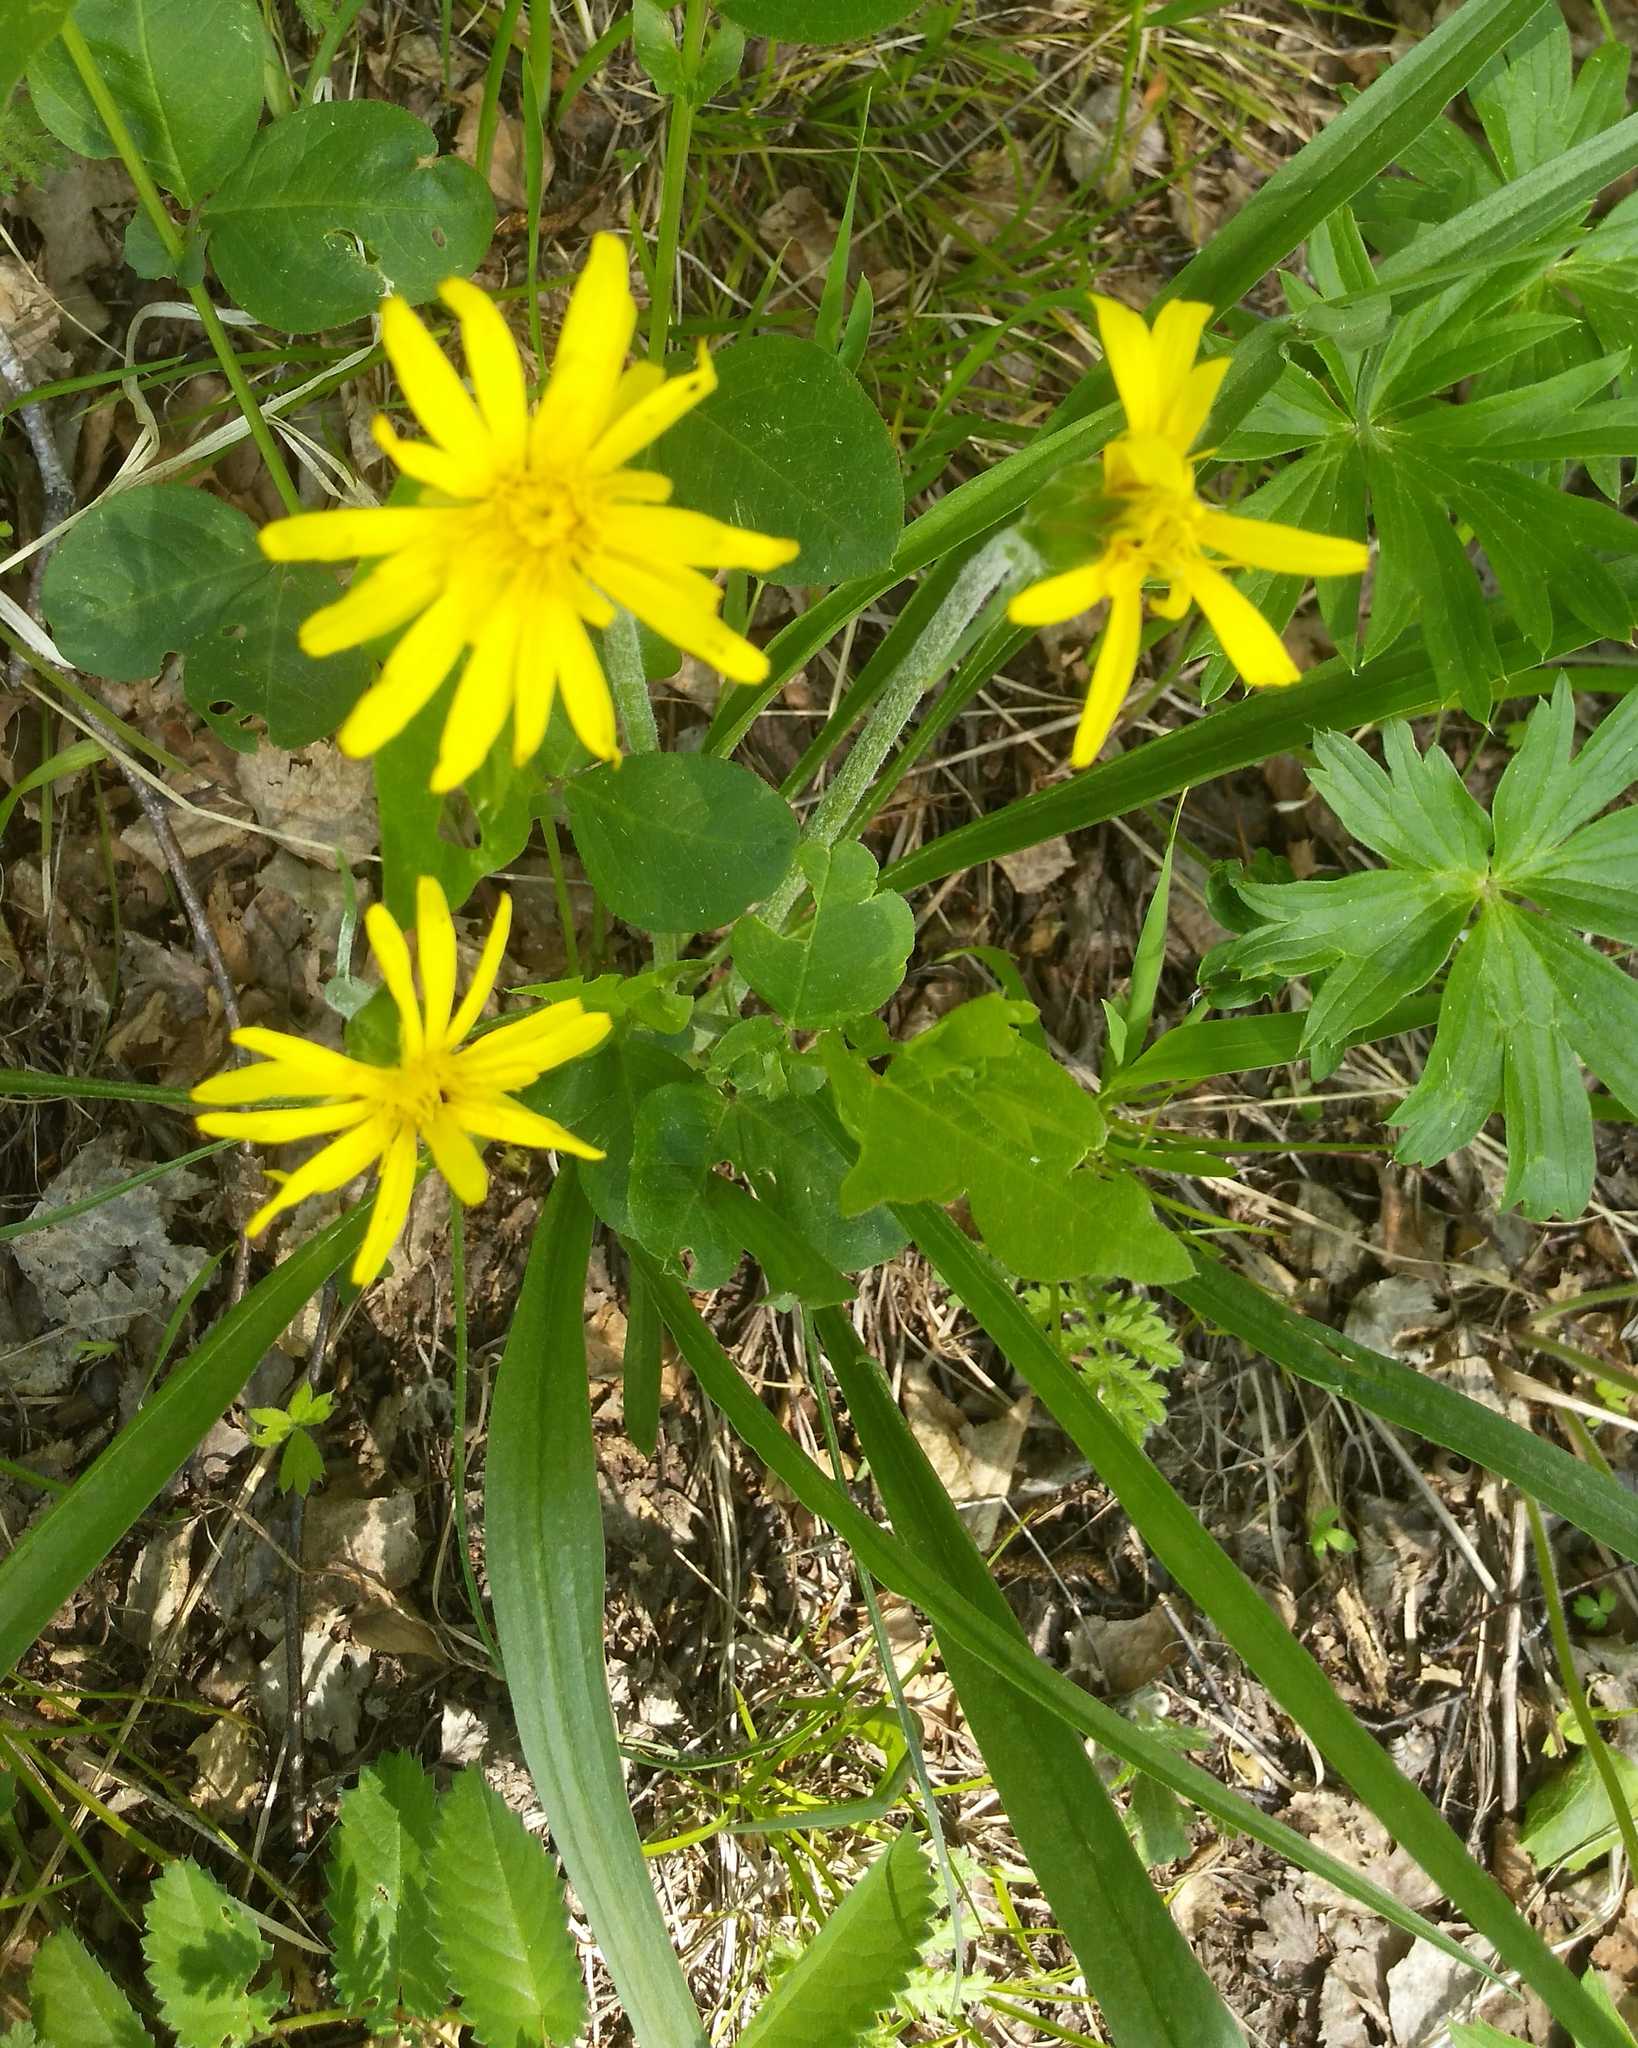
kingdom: Plantae
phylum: Tracheophyta
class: Magnoliopsida
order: Asterales
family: Asteraceae
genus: Scorzonera
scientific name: Scorzonera radiata
